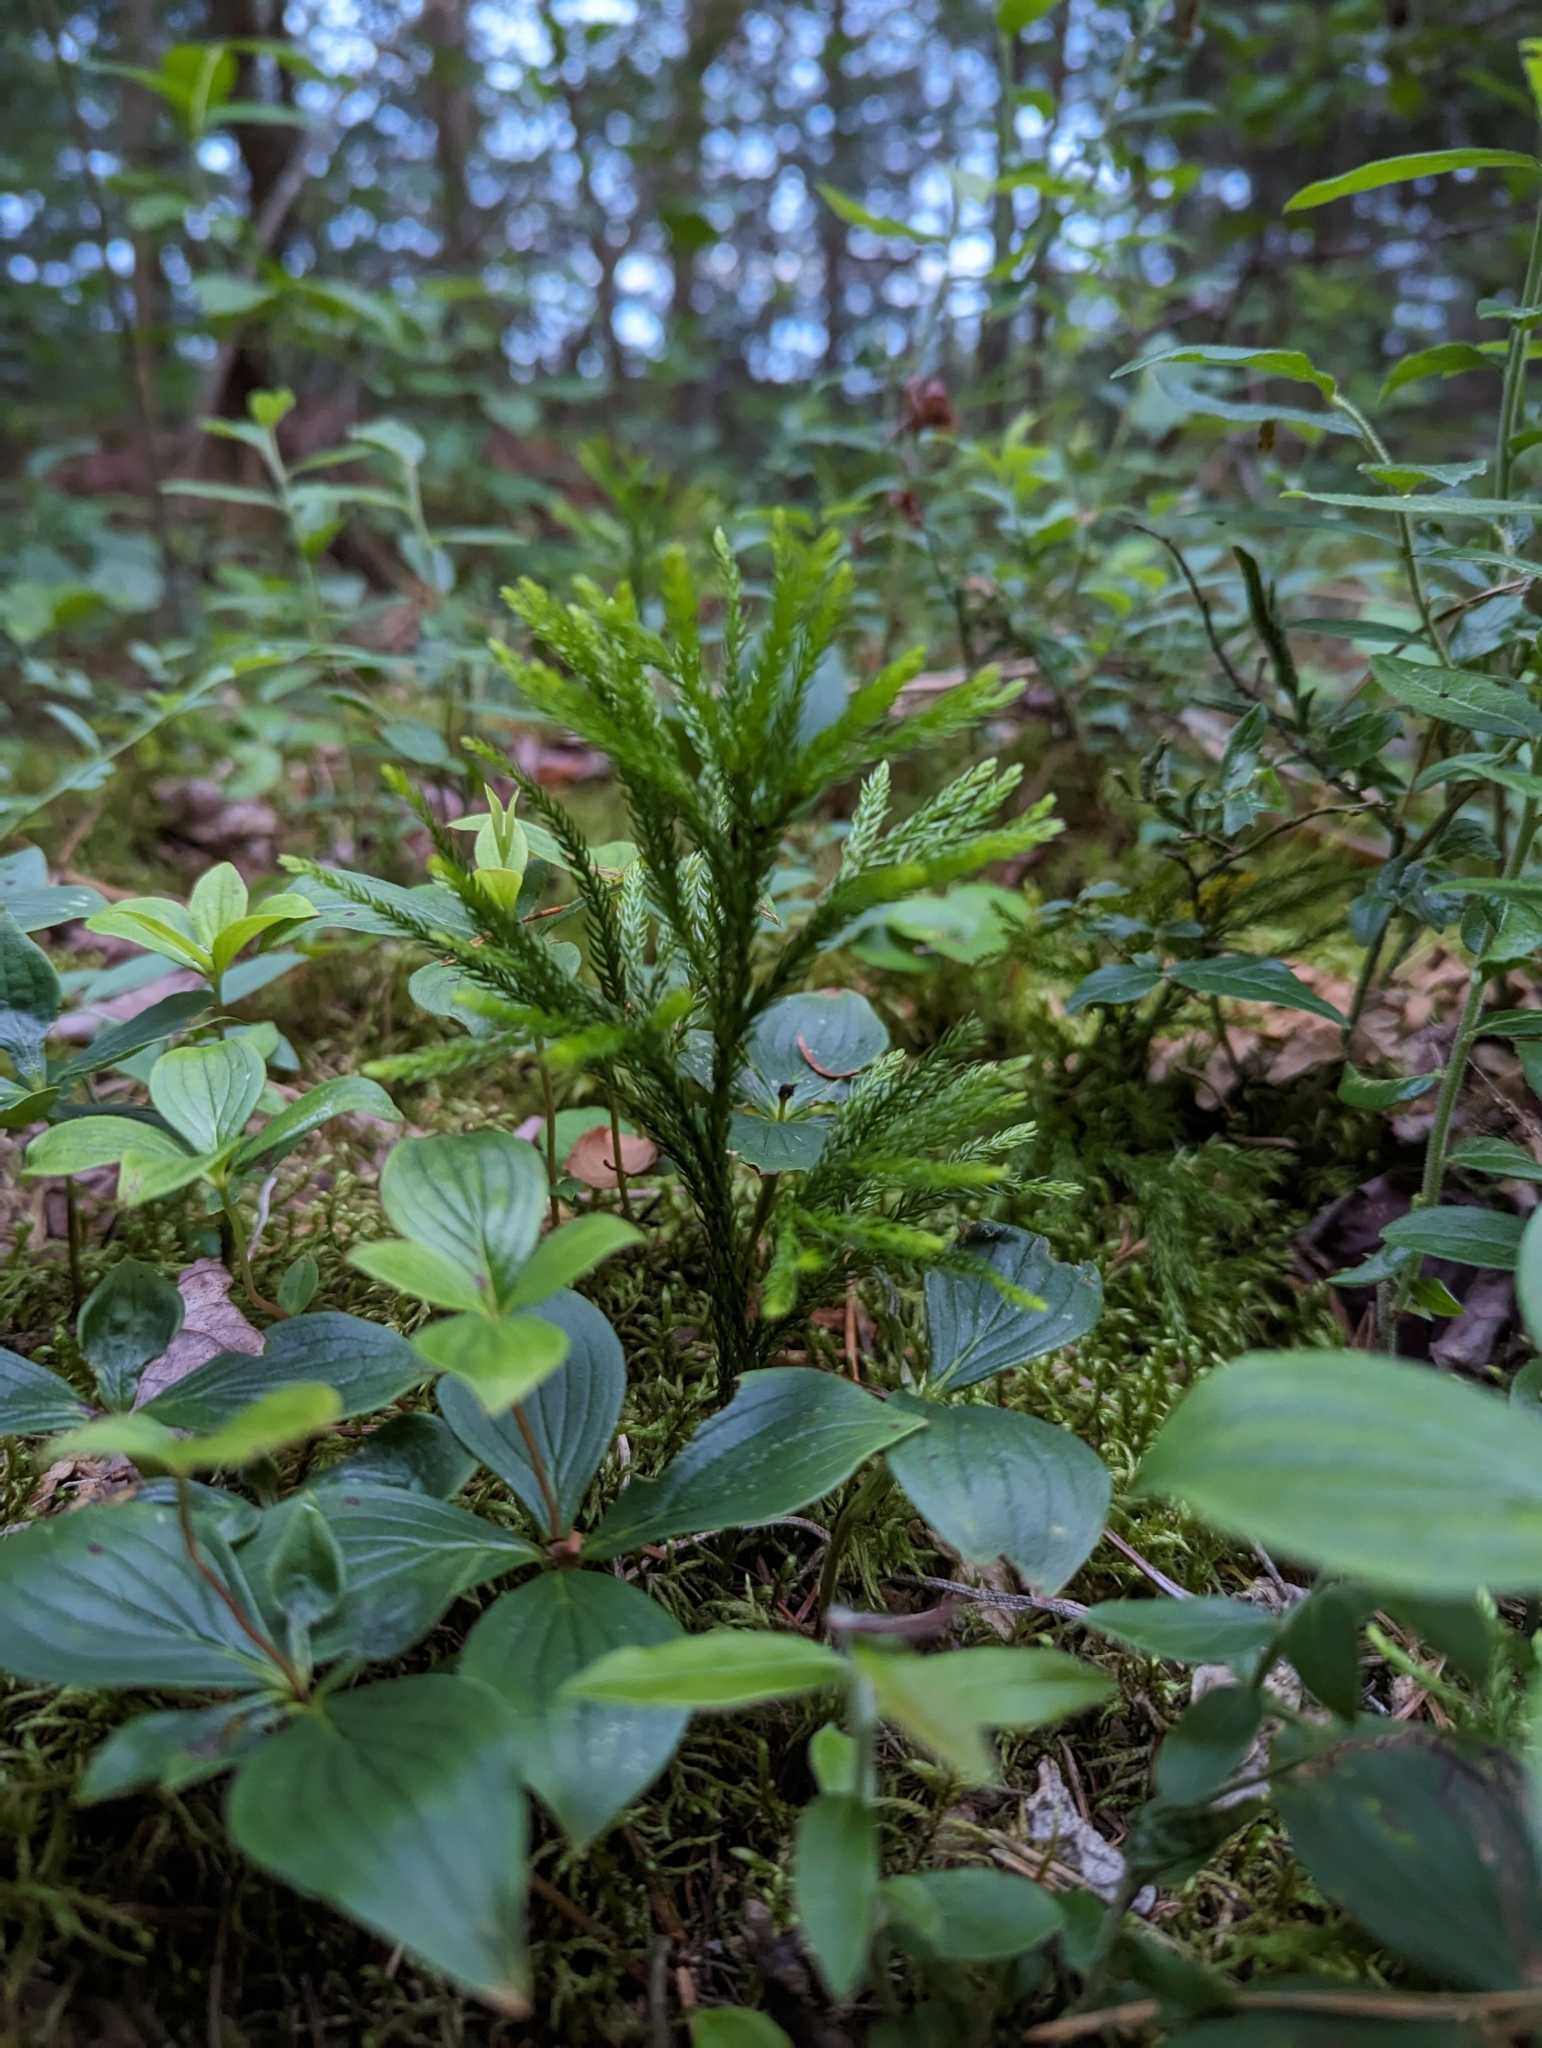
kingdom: Plantae
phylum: Tracheophyta
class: Lycopodiopsida
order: Lycopodiales
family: Lycopodiaceae
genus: Dendrolycopodium
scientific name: Dendrolycopodium obscurum
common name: Common ground-pine
